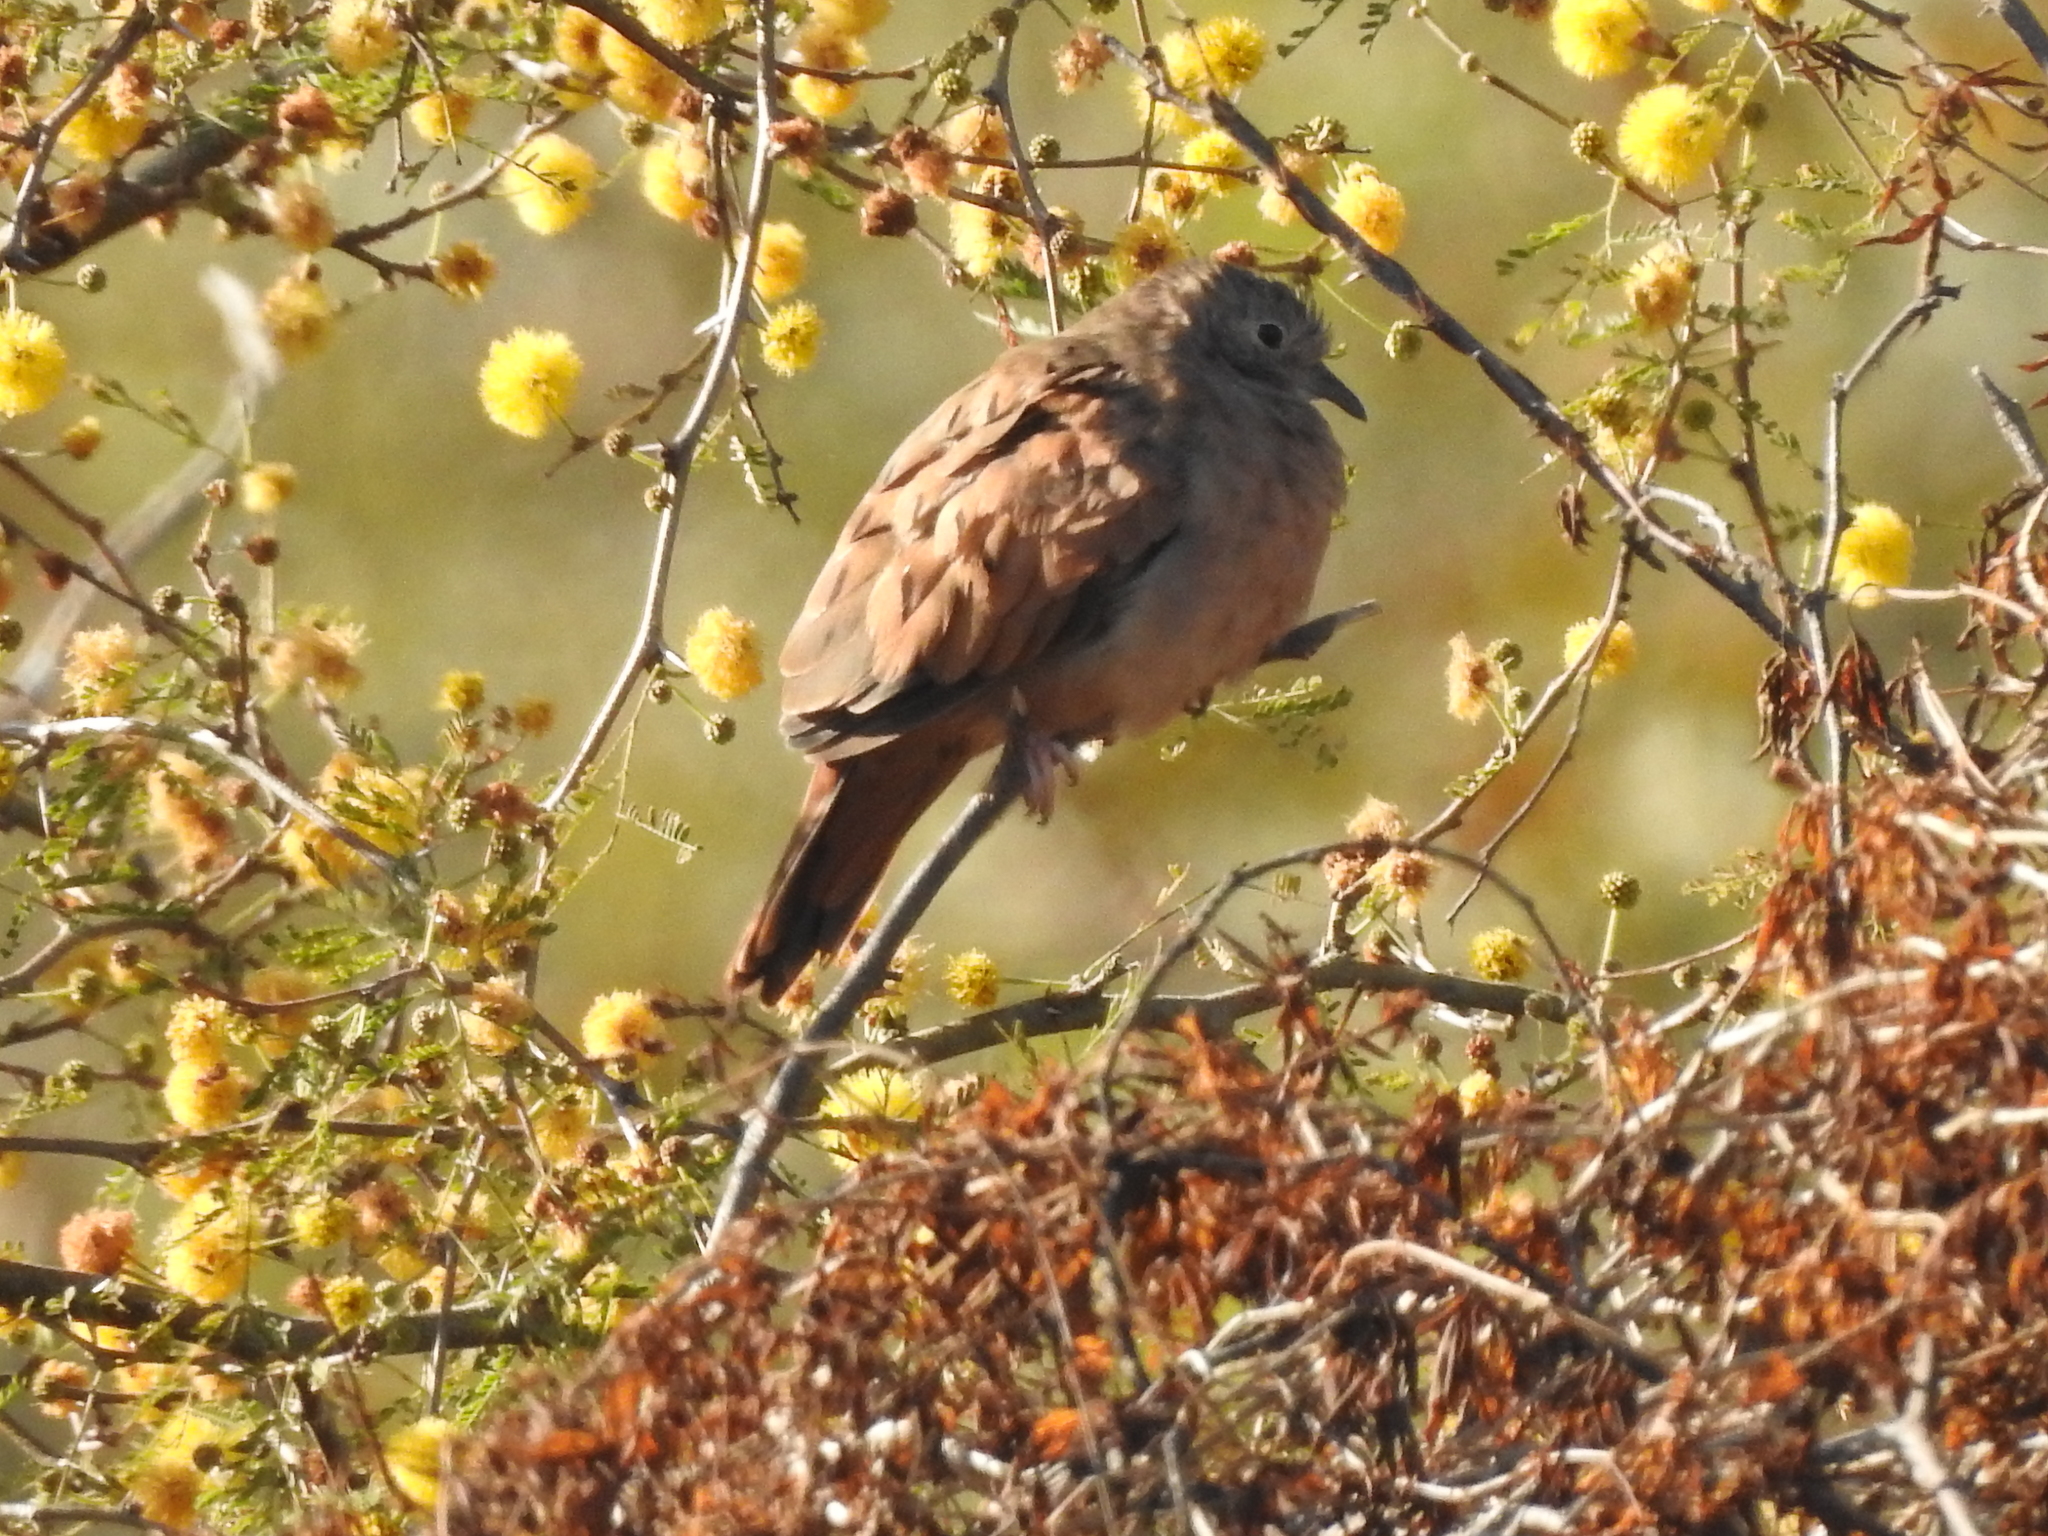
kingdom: Animalia
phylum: Chordata
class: Aves
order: Columbiformes
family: Columbidae
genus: Columbina
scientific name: Columbina talpacoti
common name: Ruddy ground dove
